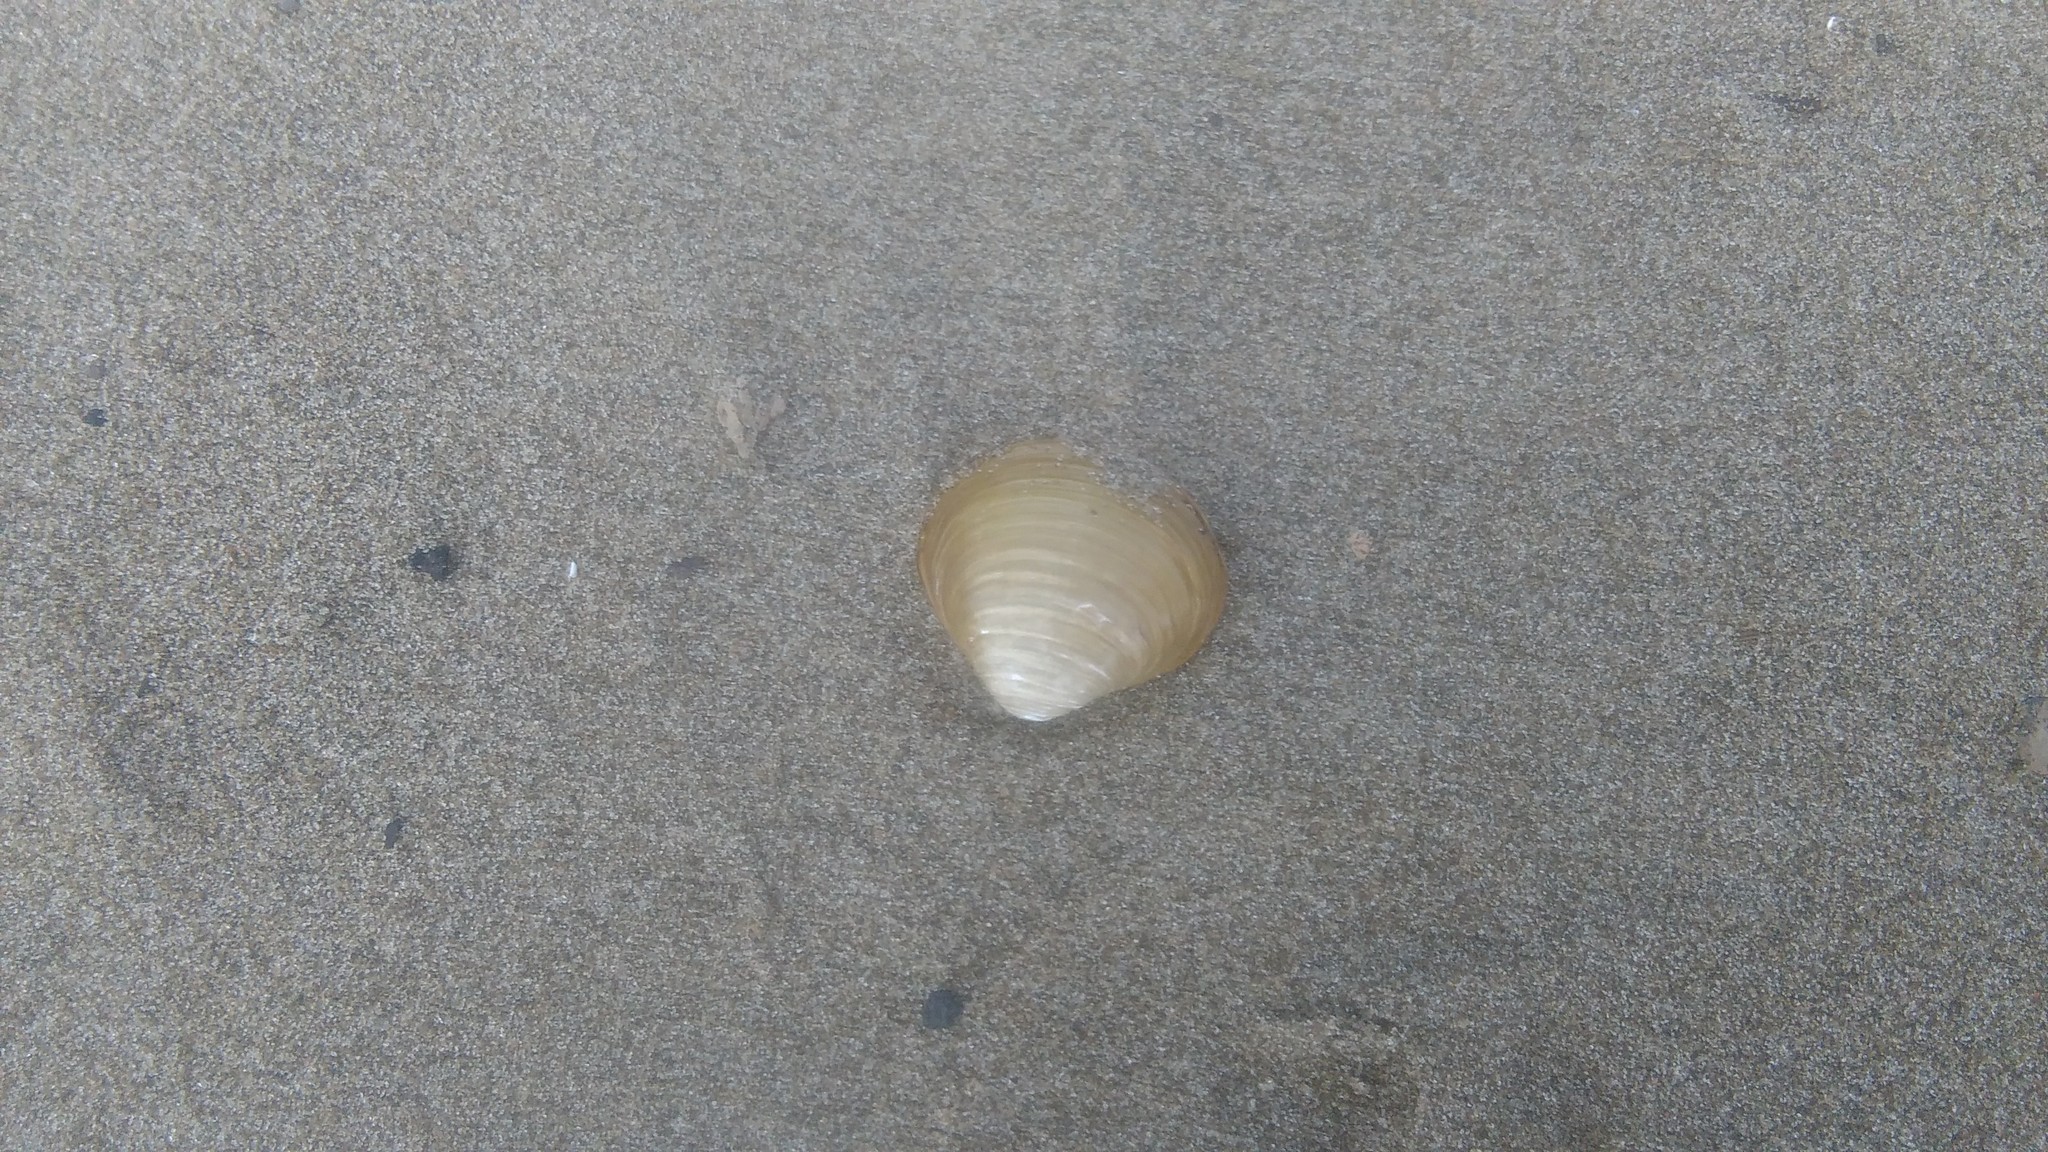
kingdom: Animalia
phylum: Mollusca
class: Bivalvia
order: Venerida
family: Cyrenidae
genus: Corbicula
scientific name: Corbicula fluminea
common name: Asian clam
